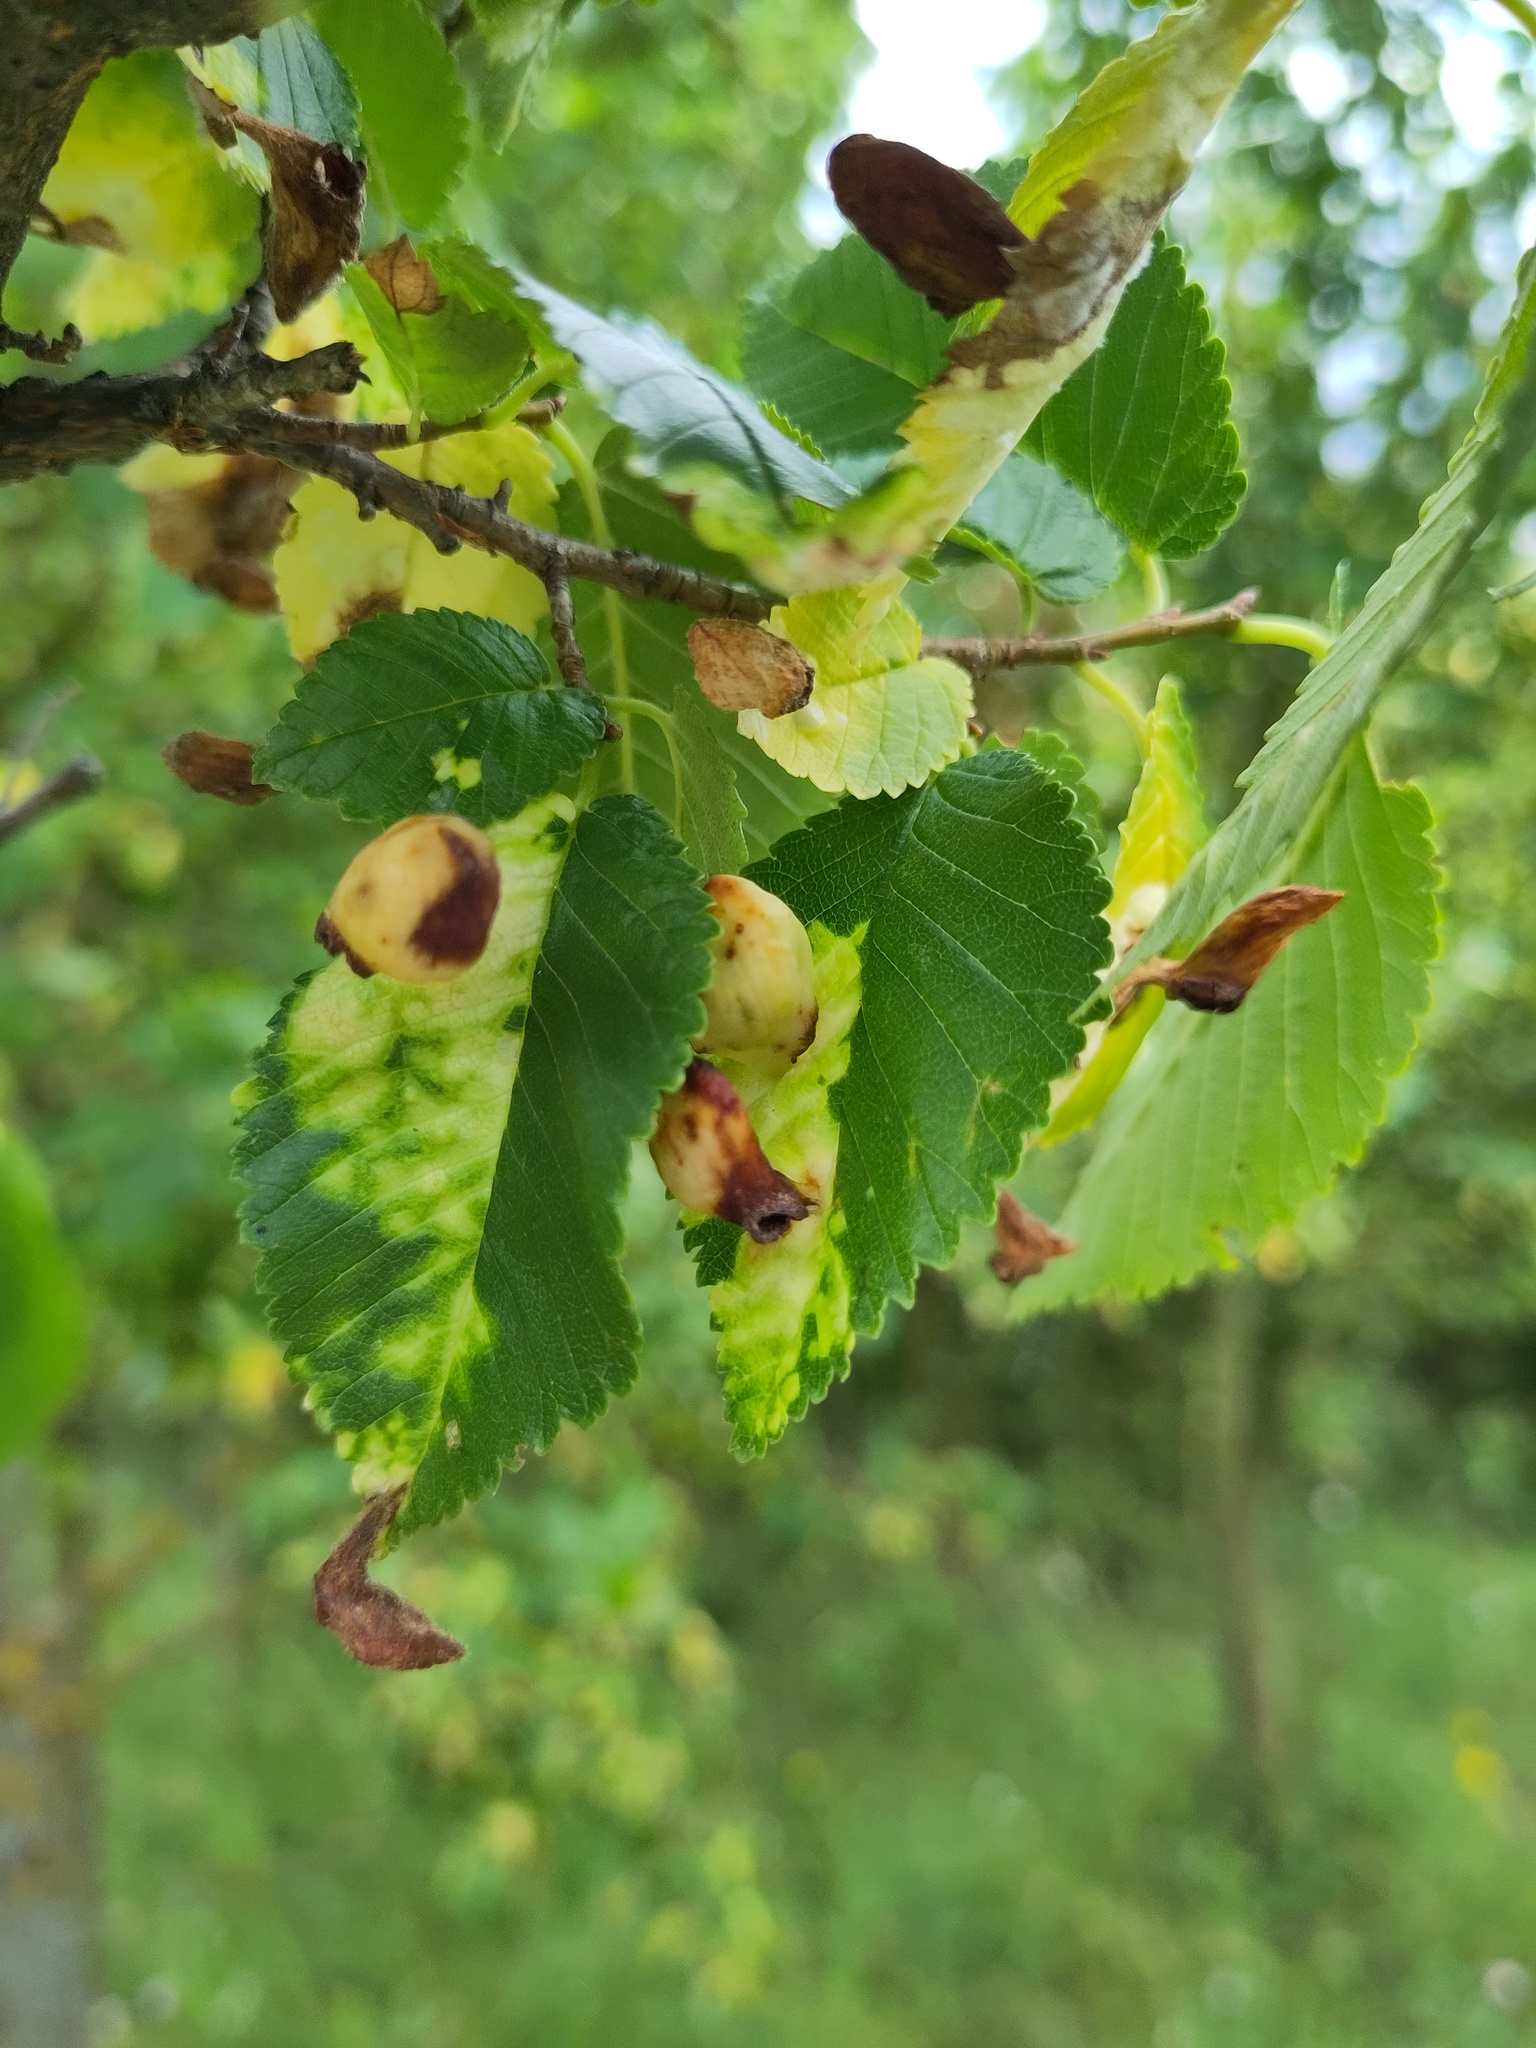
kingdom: Animalia
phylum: Arthropoda
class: Insecta
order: Hemiptera
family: Aphididae
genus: Tetraneura
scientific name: Tetraneura ulmi
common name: Aphid
